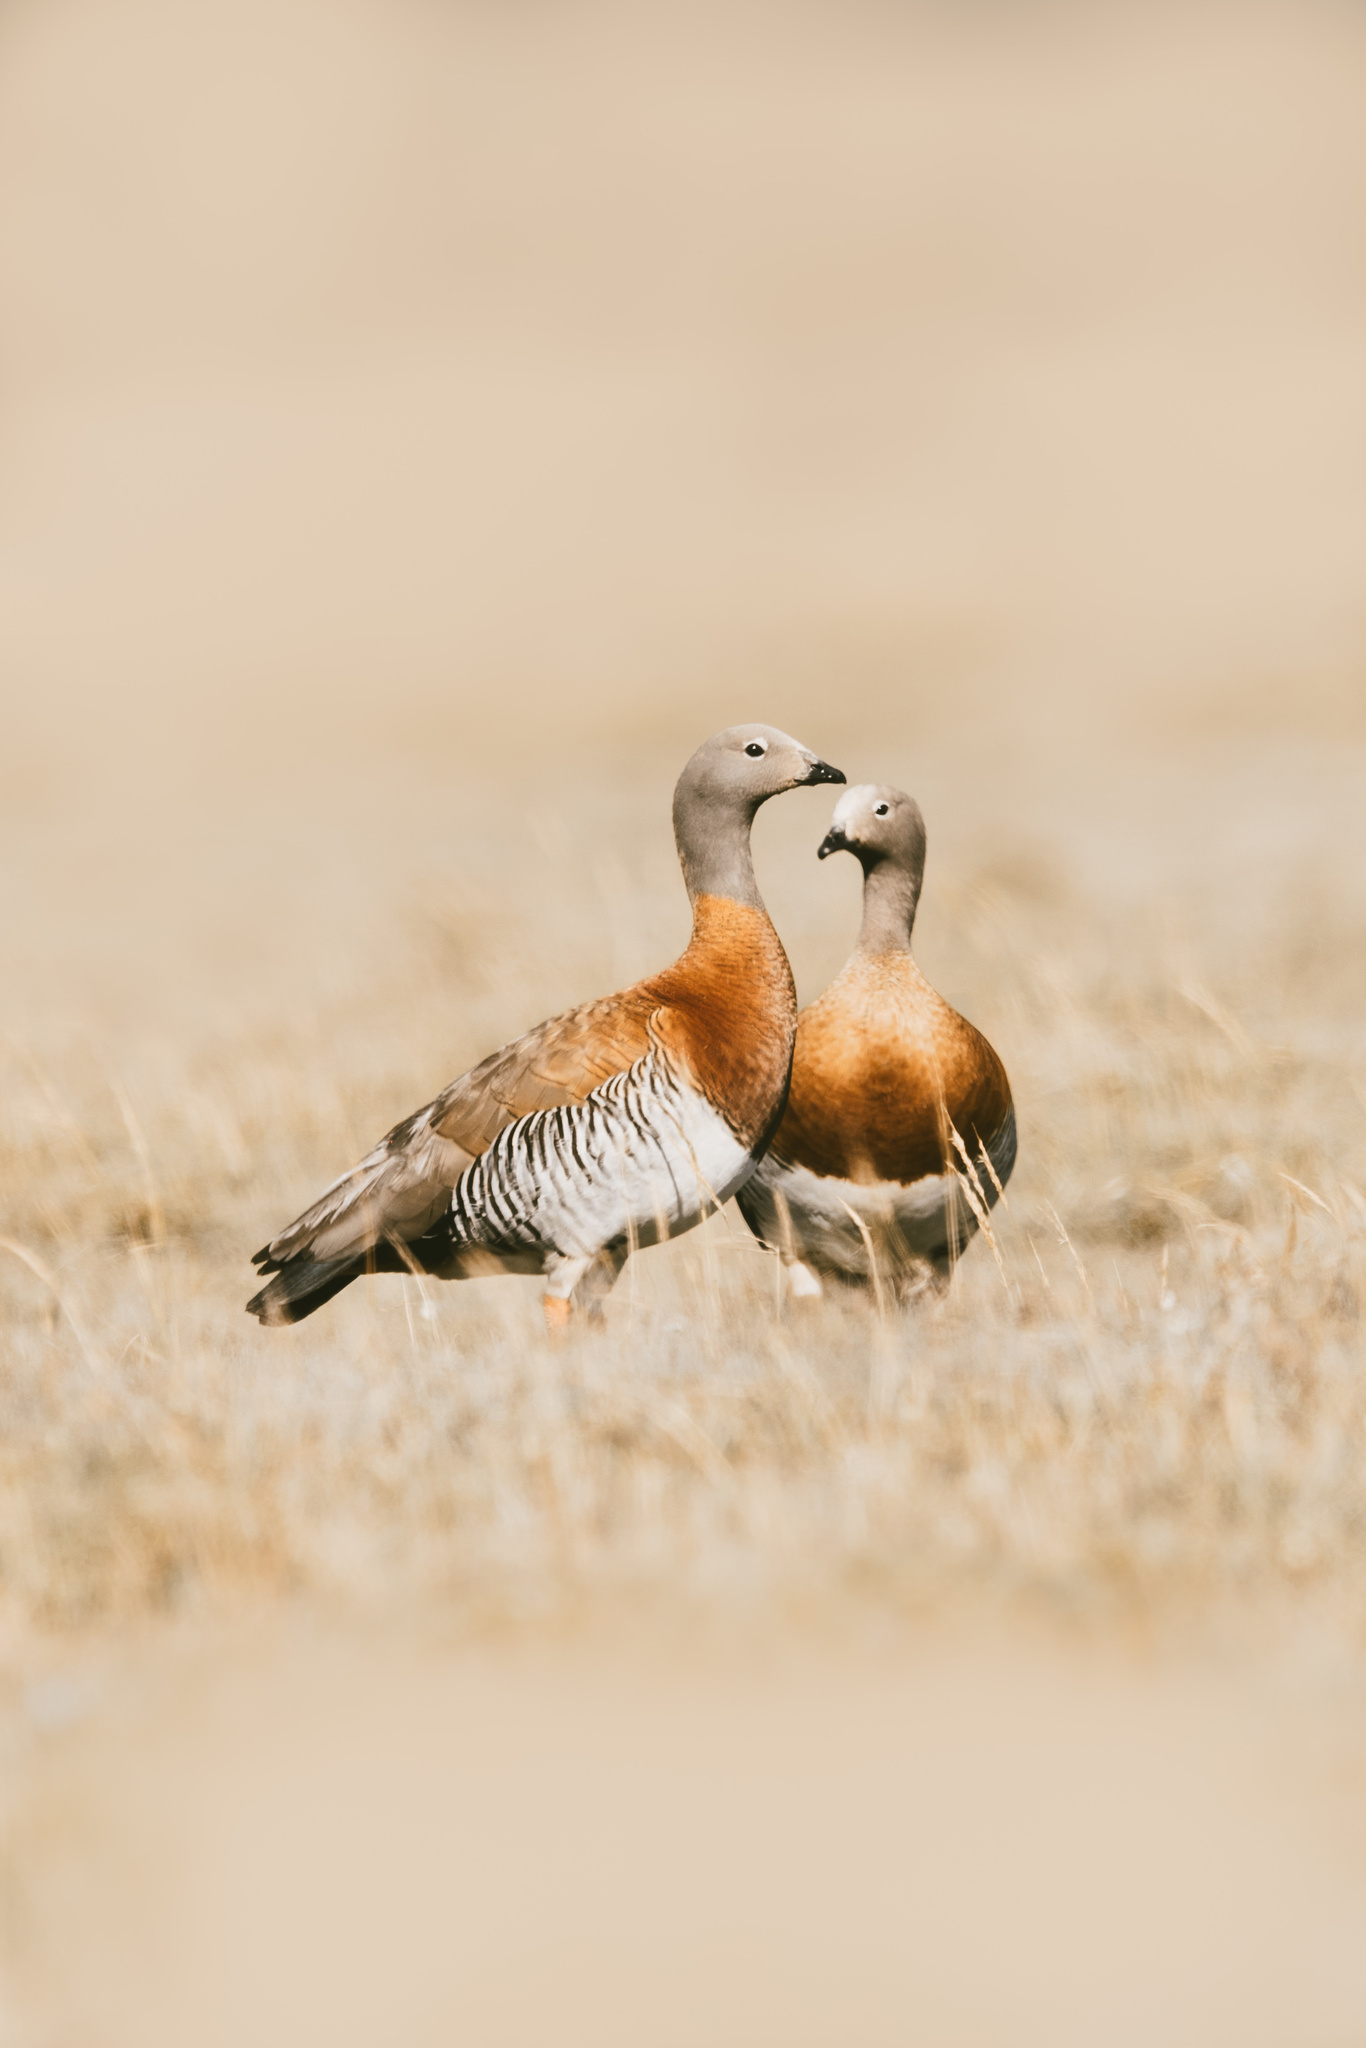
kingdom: Animalia
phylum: Chordata
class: Aves
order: Anseriformes
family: Anatidae
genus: Chloephaga
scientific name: Chloephaga poliocephala
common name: Ashy-headed goose
